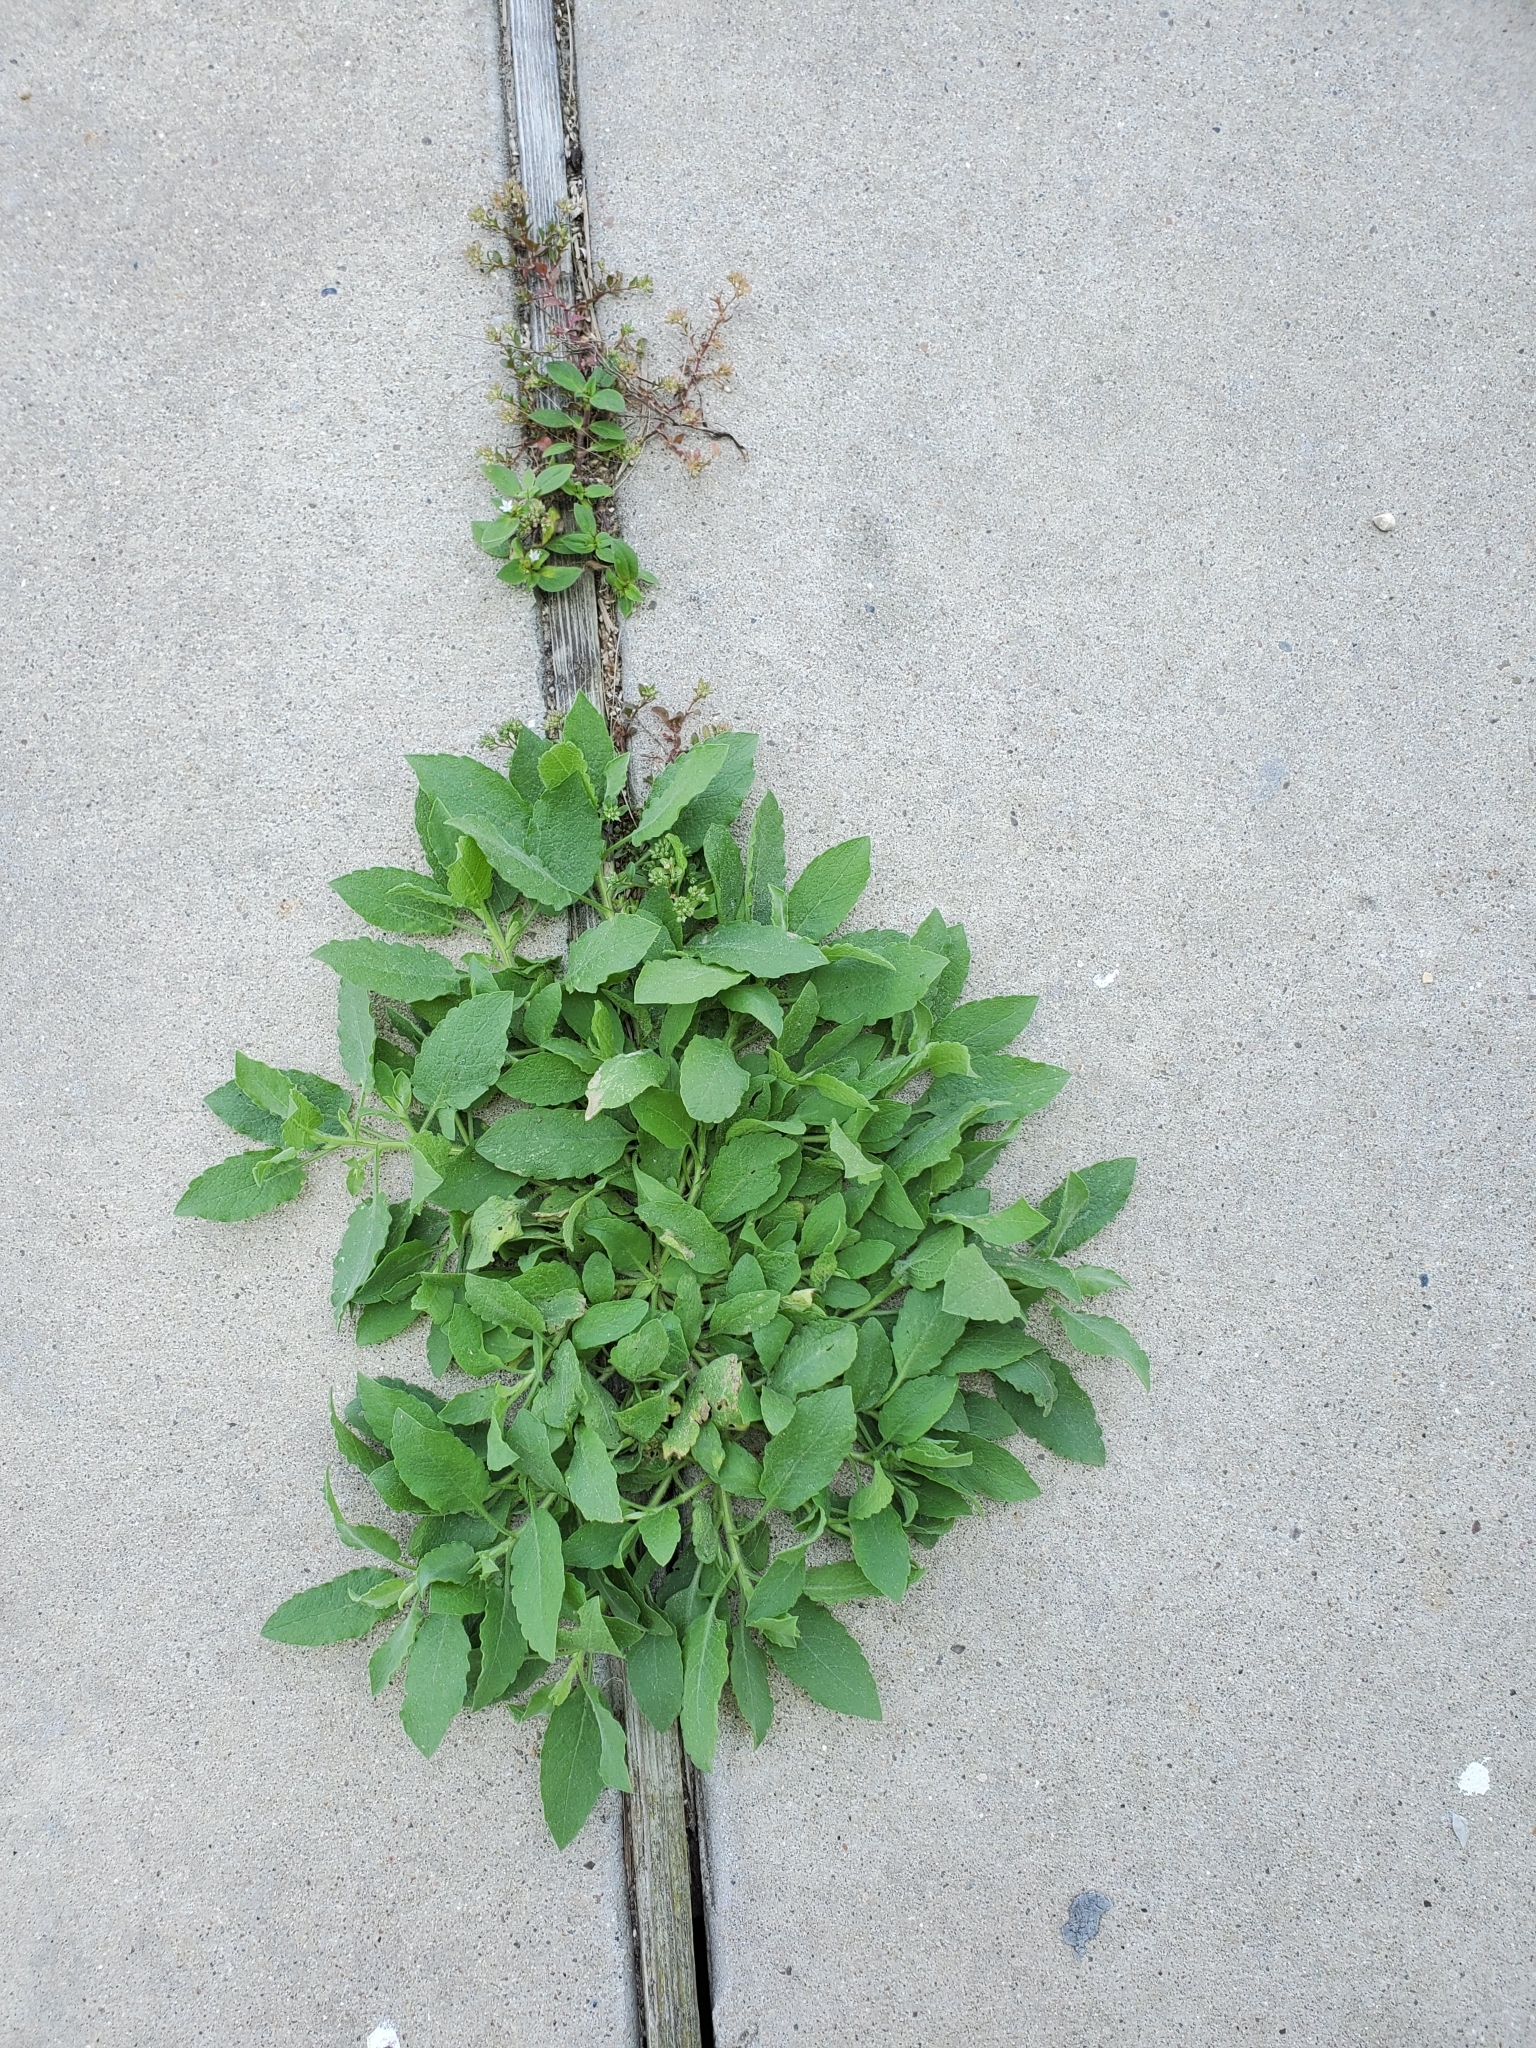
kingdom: Plantae
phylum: Tracheophyta
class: Magnoliopsida
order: Asterales
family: Asteraceae
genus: Heterotheca
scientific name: Heterotheca subaxillaris
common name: Camphorweed
